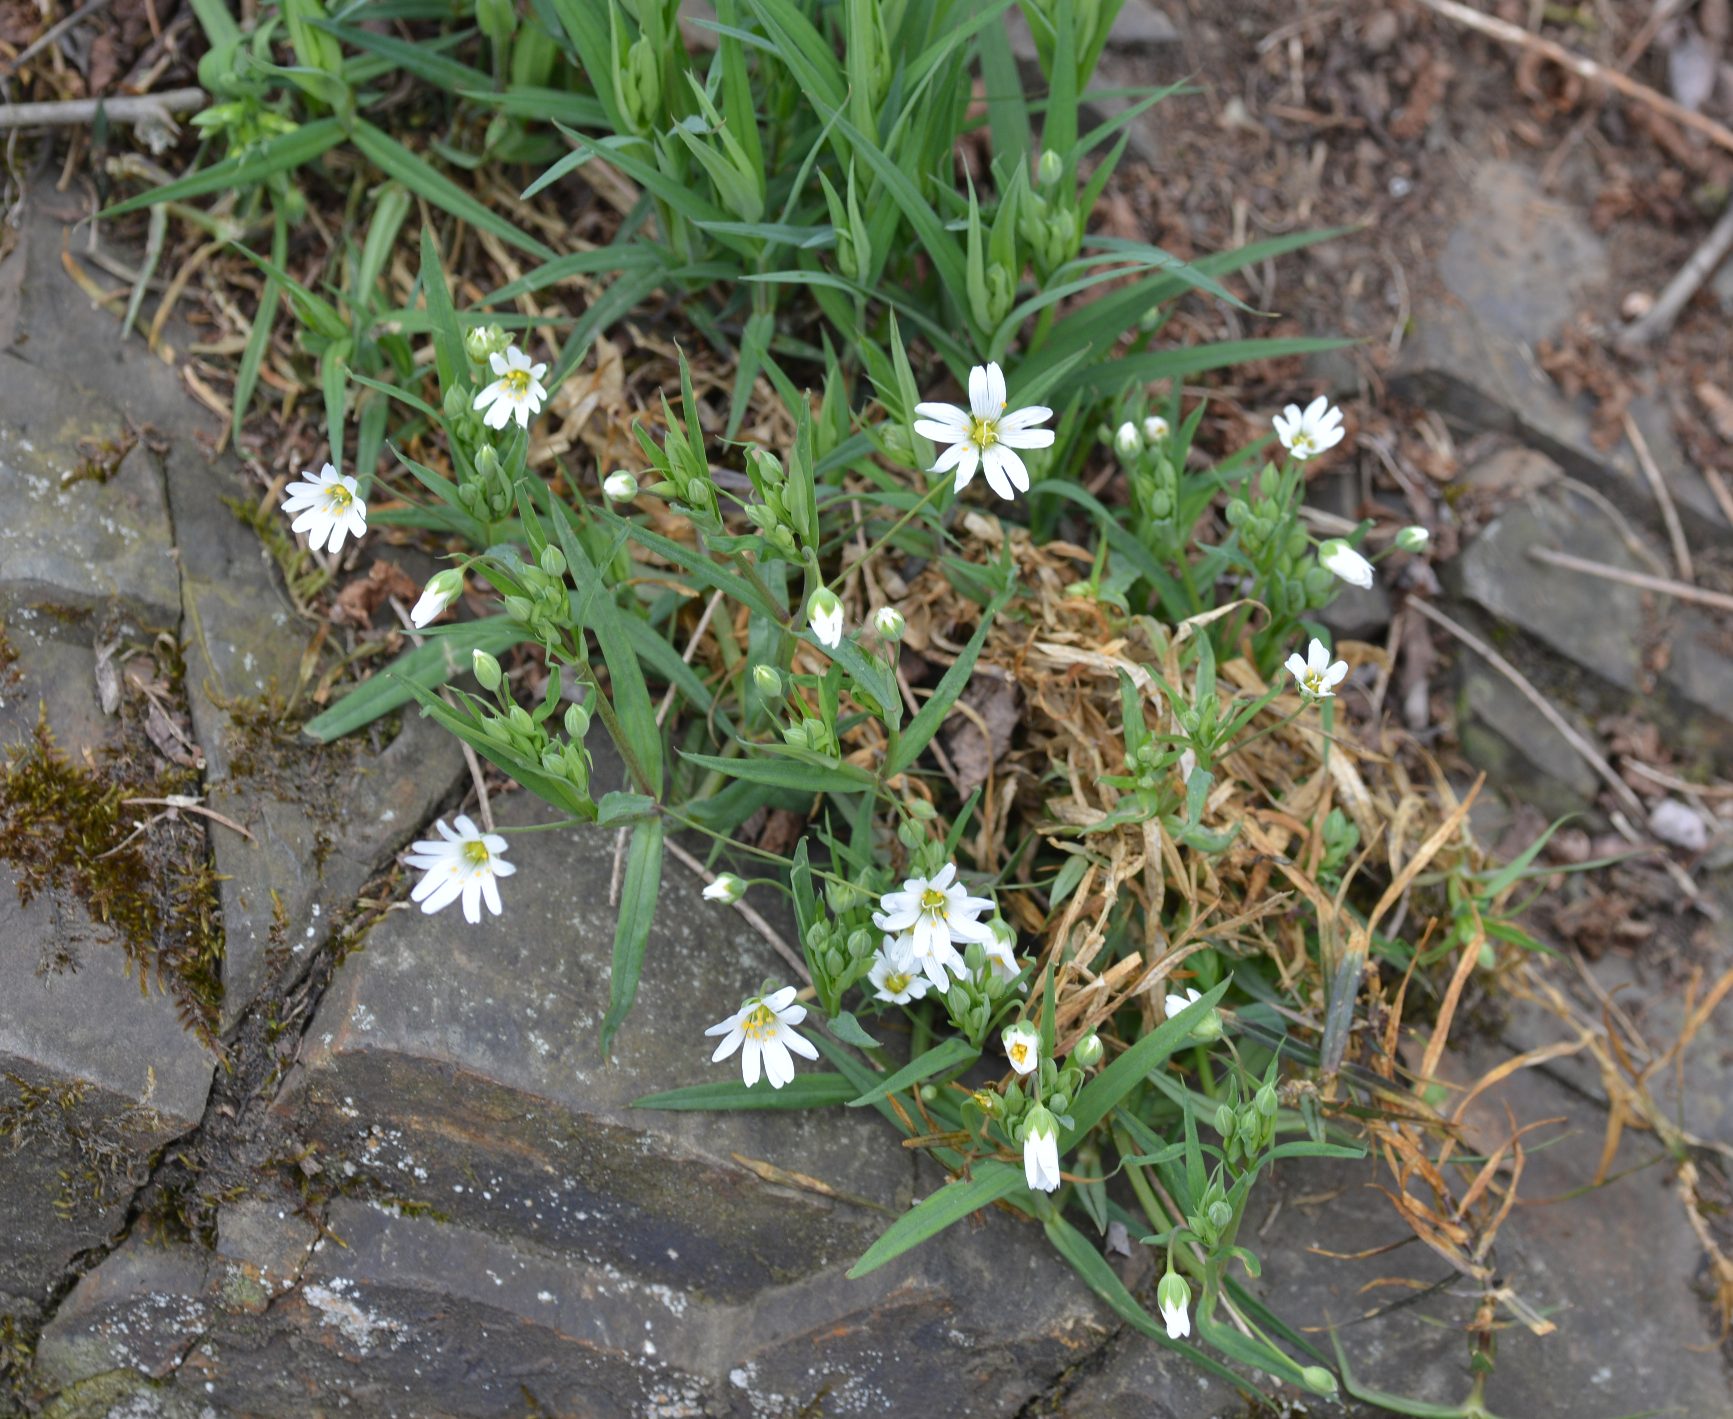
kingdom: Plantae
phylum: Tracheophyta
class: Magnoliopsida
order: Caryophyllales
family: Caryophyllaceae
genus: Rabelera
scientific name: Rabelera holostea
